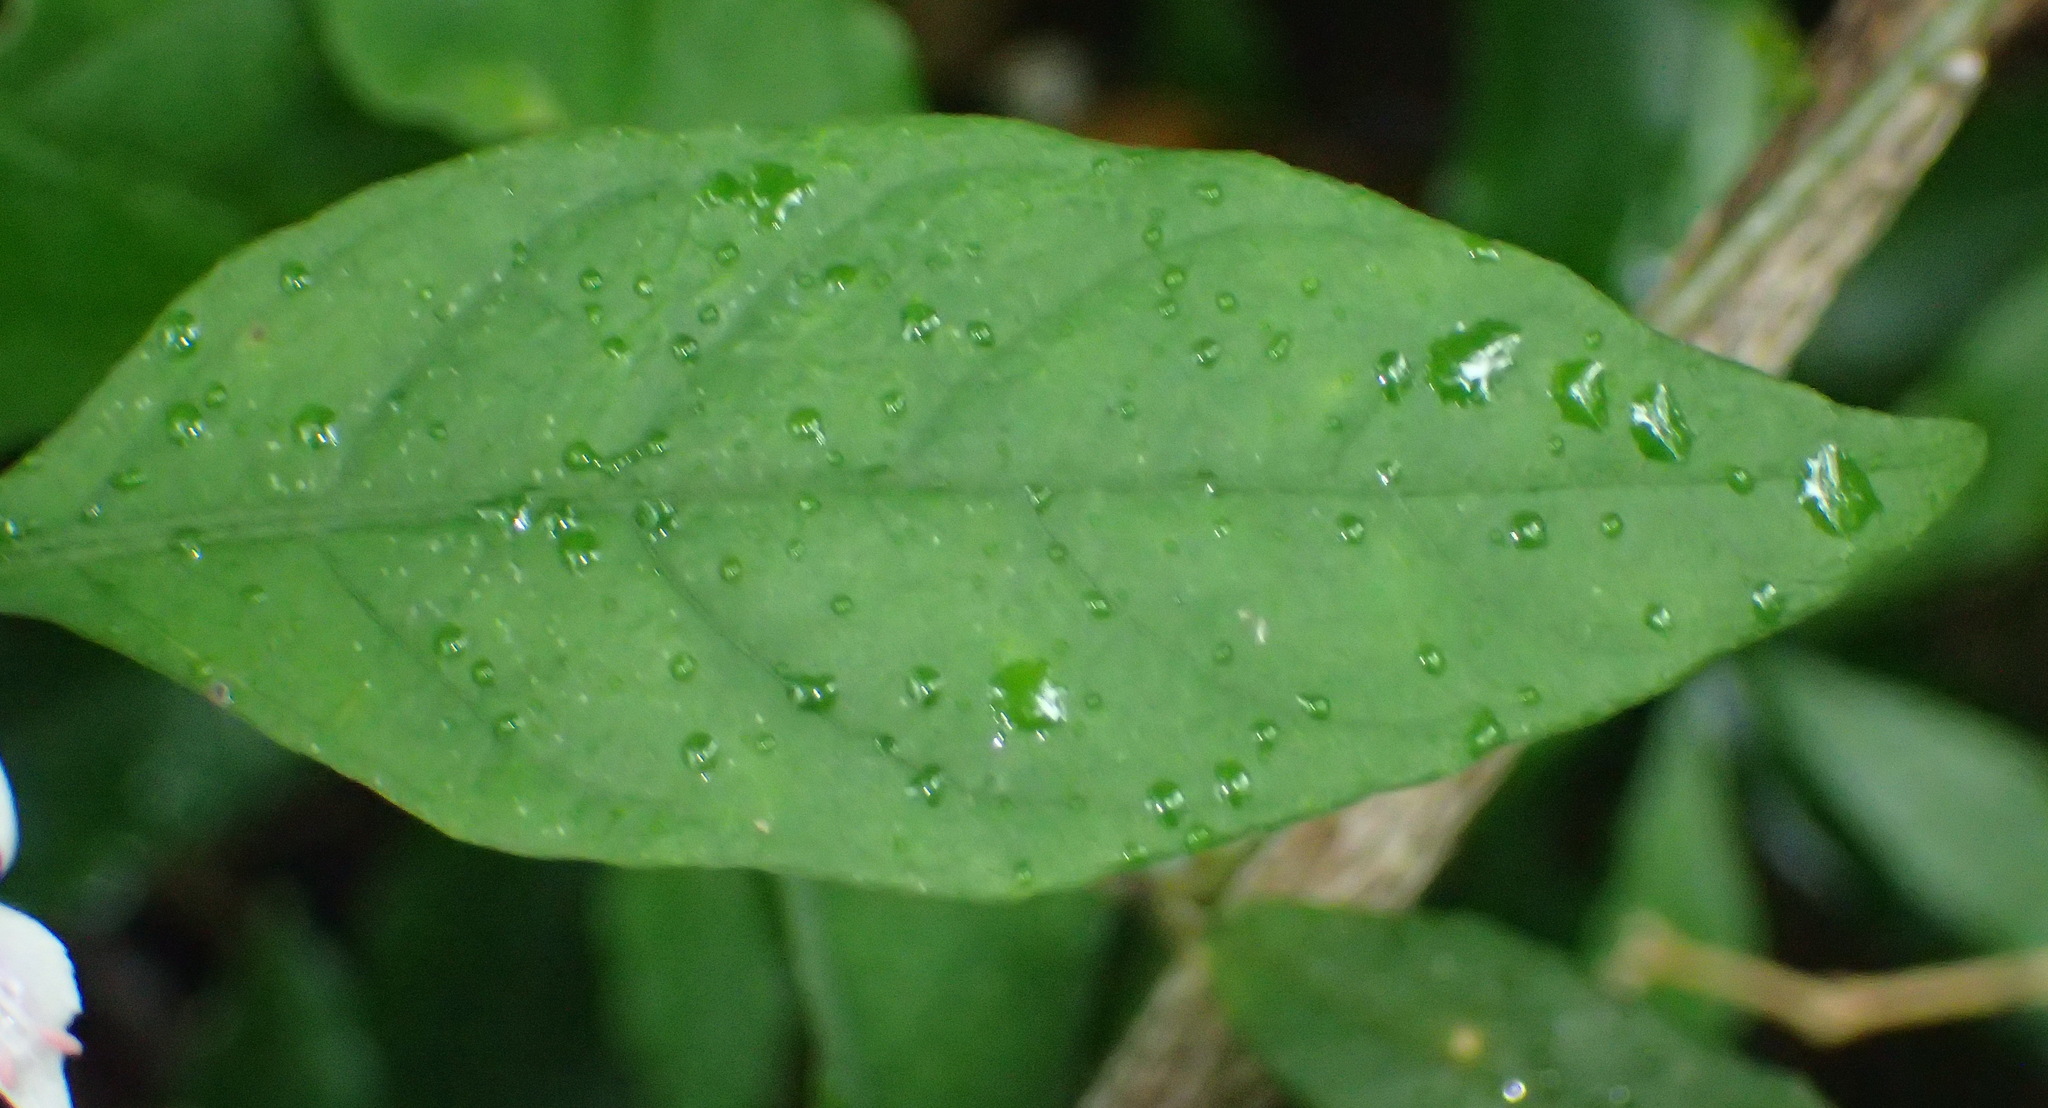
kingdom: Plantae
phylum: Tracheophyta
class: Magnoliopsida
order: Lamiales
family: Acanthaceae
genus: Hypoestes
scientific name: Hypoestes forskaolii
